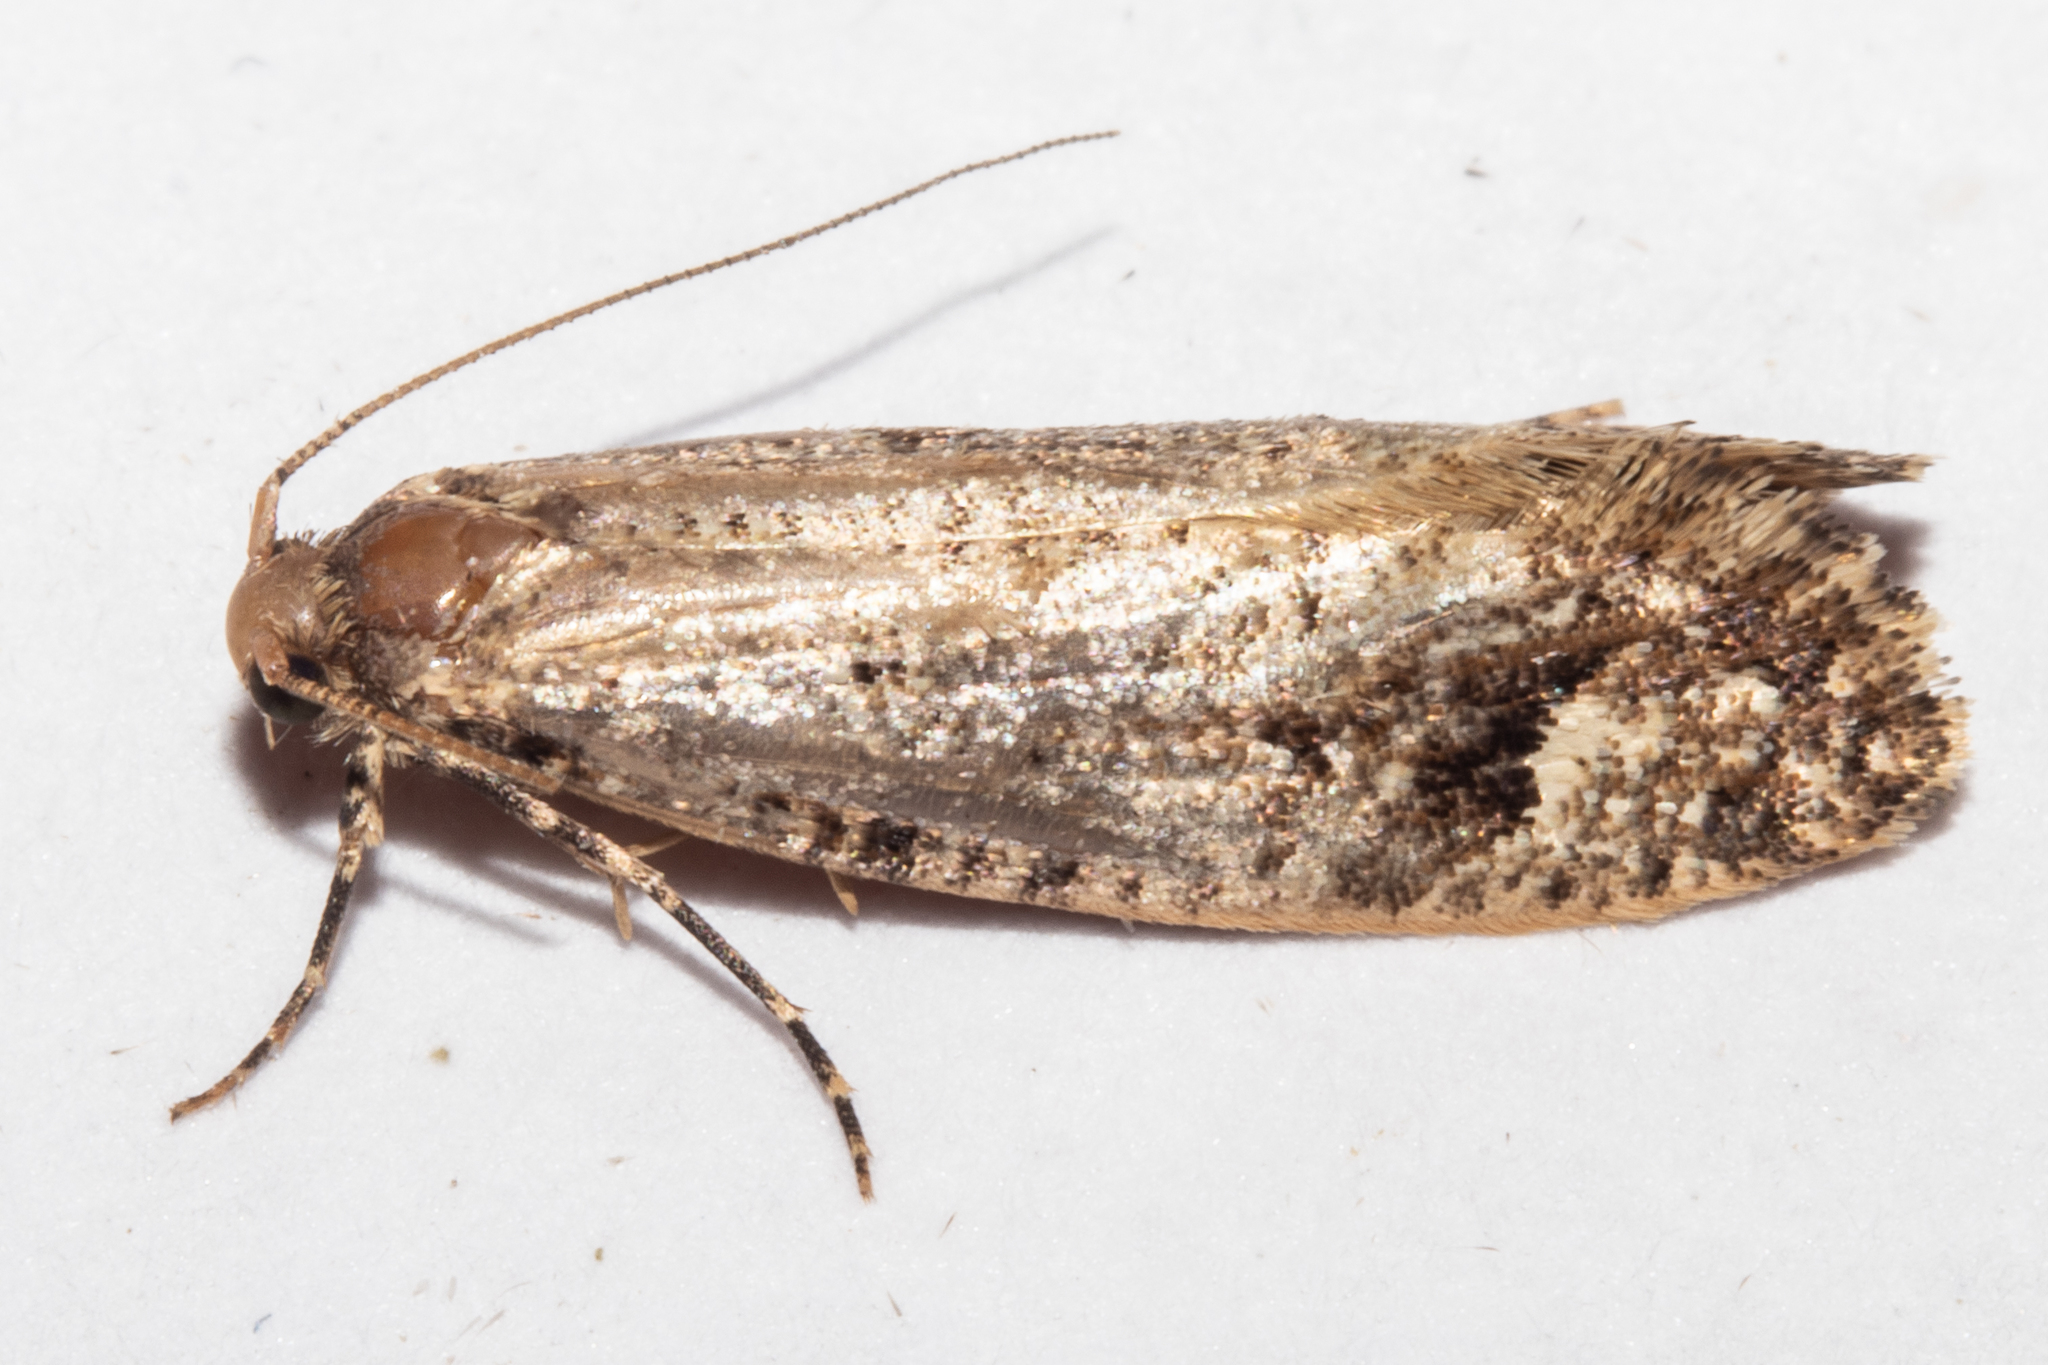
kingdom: Animalia
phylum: Arthropoda
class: Insecta
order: Lepidoptera
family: Tineidae
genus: Lysiphragma
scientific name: Lysiphragma epixyla
